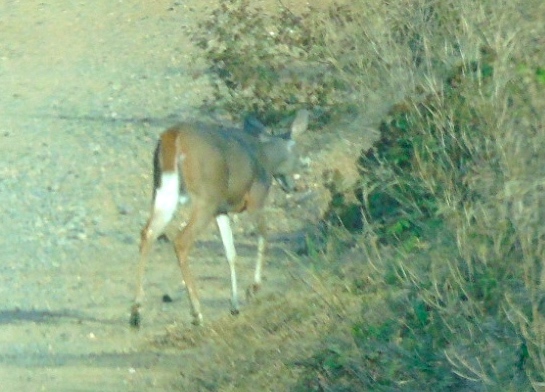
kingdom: Animalia
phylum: Chordata
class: Mammalia
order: Artiodactyla
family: Cervidae
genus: Odocoileus
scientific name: Odocoileus virginianus
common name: White-tailed deer
